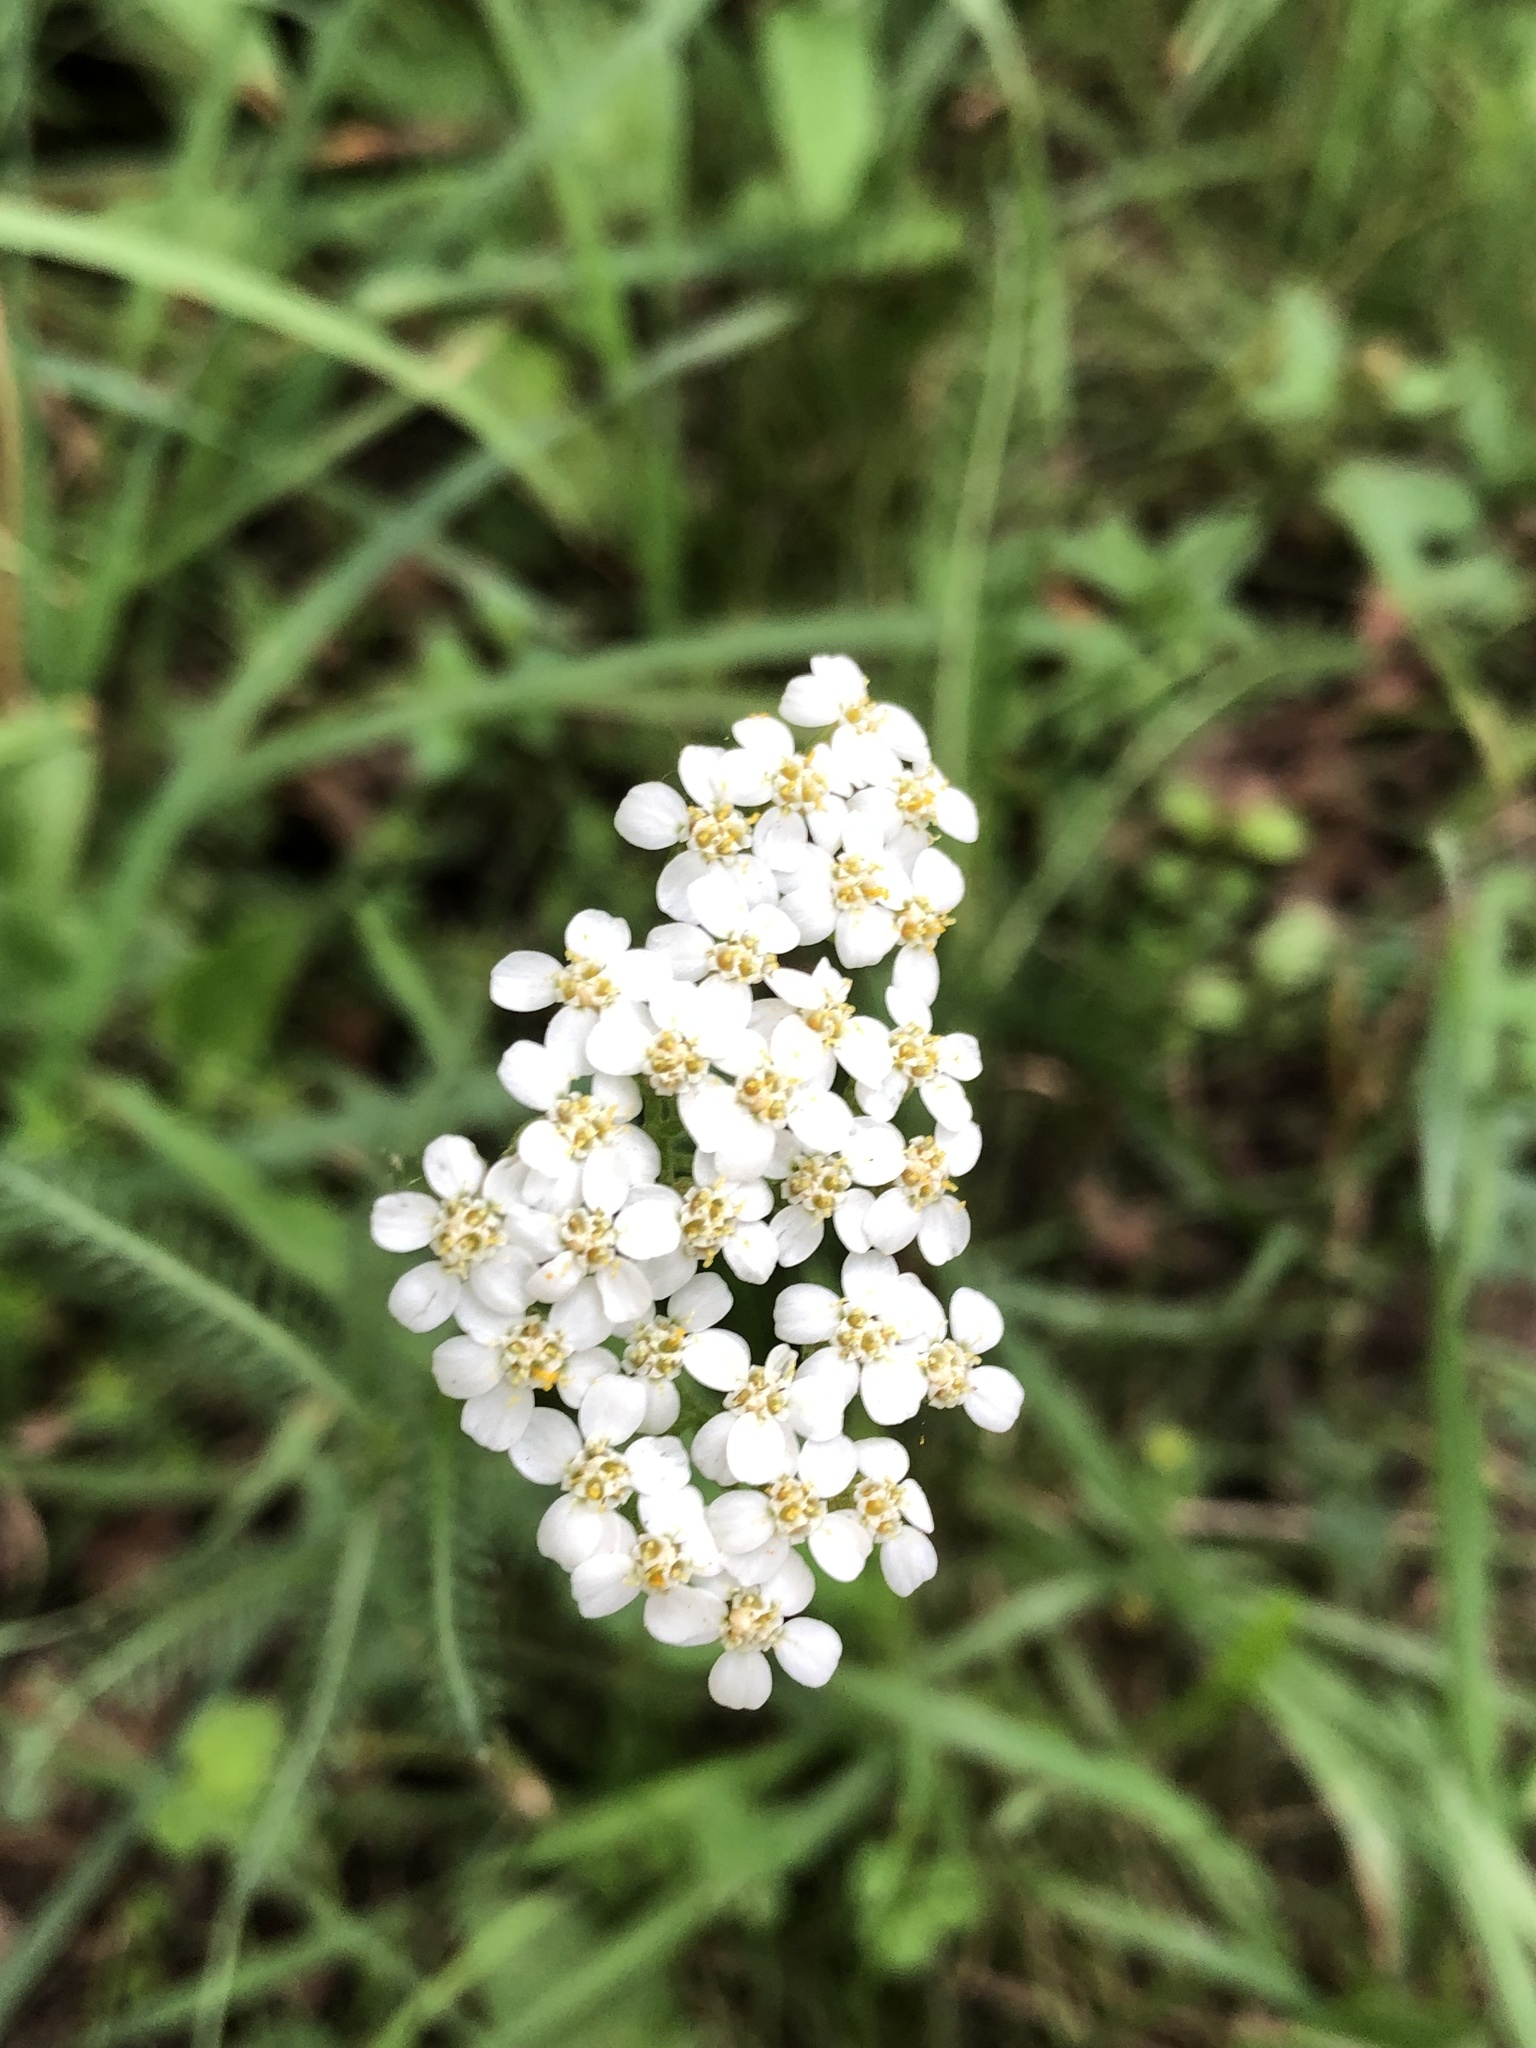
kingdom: Plantae
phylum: Tracheophyta
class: Magnoliopsida
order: Asterales
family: Asteraceae
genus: Achillea
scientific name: Achillea millefolium
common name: Yarrow
